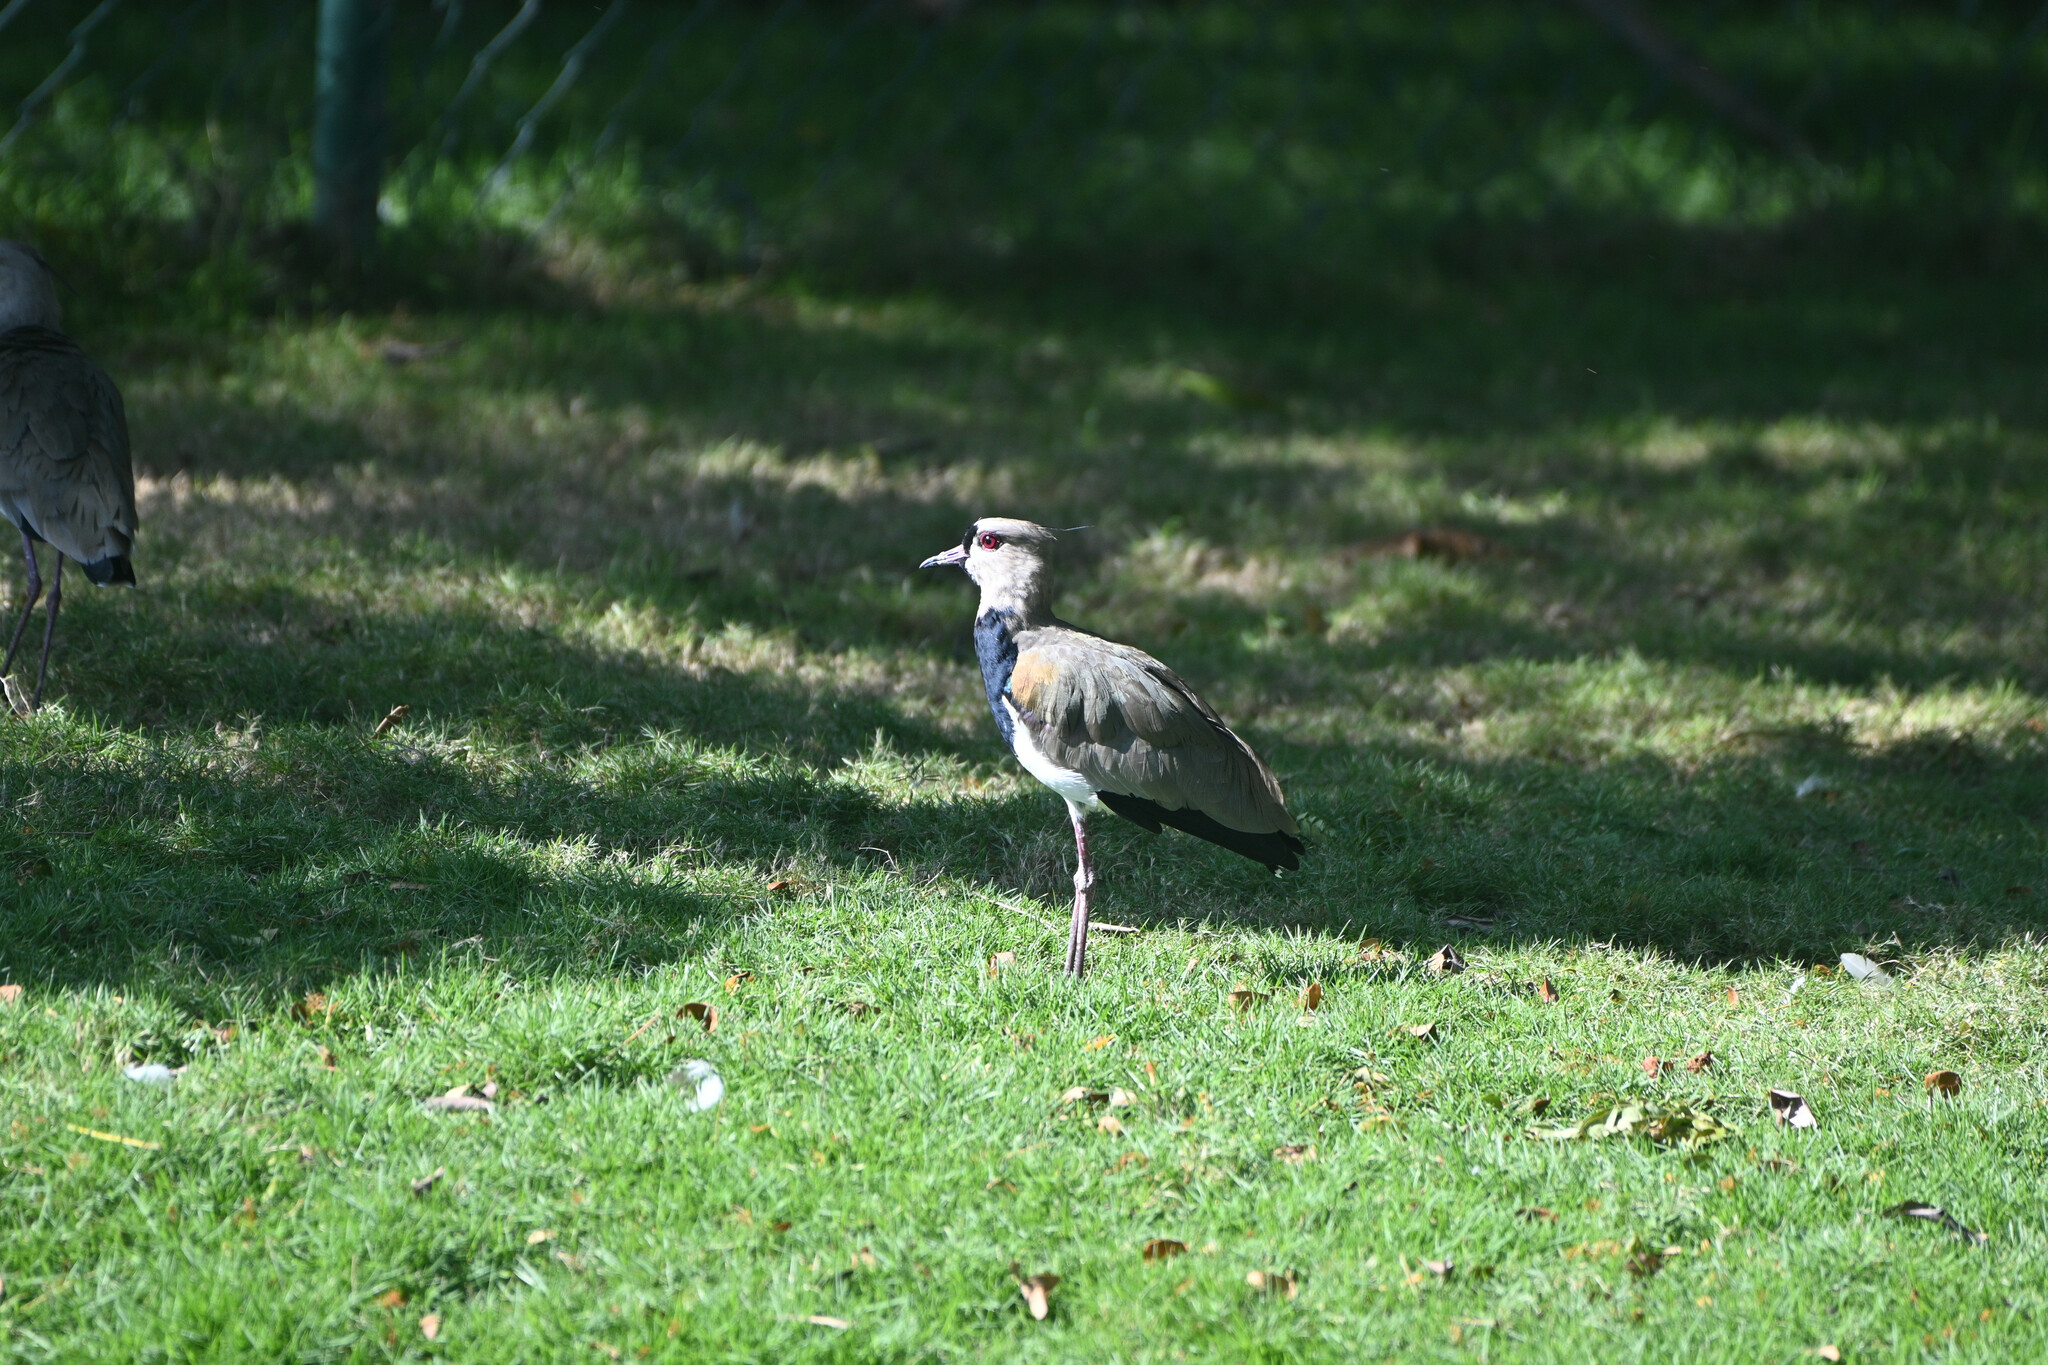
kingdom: Animalia
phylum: Chordata
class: Aves
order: Charadriiformes
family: Charadriidae
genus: Vanellus
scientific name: Vanellus chilensis
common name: Southern lapwing
